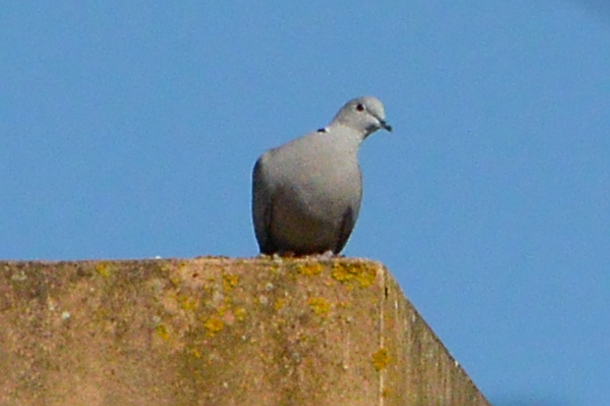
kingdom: Animalia
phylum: Chordata
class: Aves
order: Columbiformes
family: Columbidae
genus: Streptopelia
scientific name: Streptopelia decaocto
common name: Eurasian collared dove
